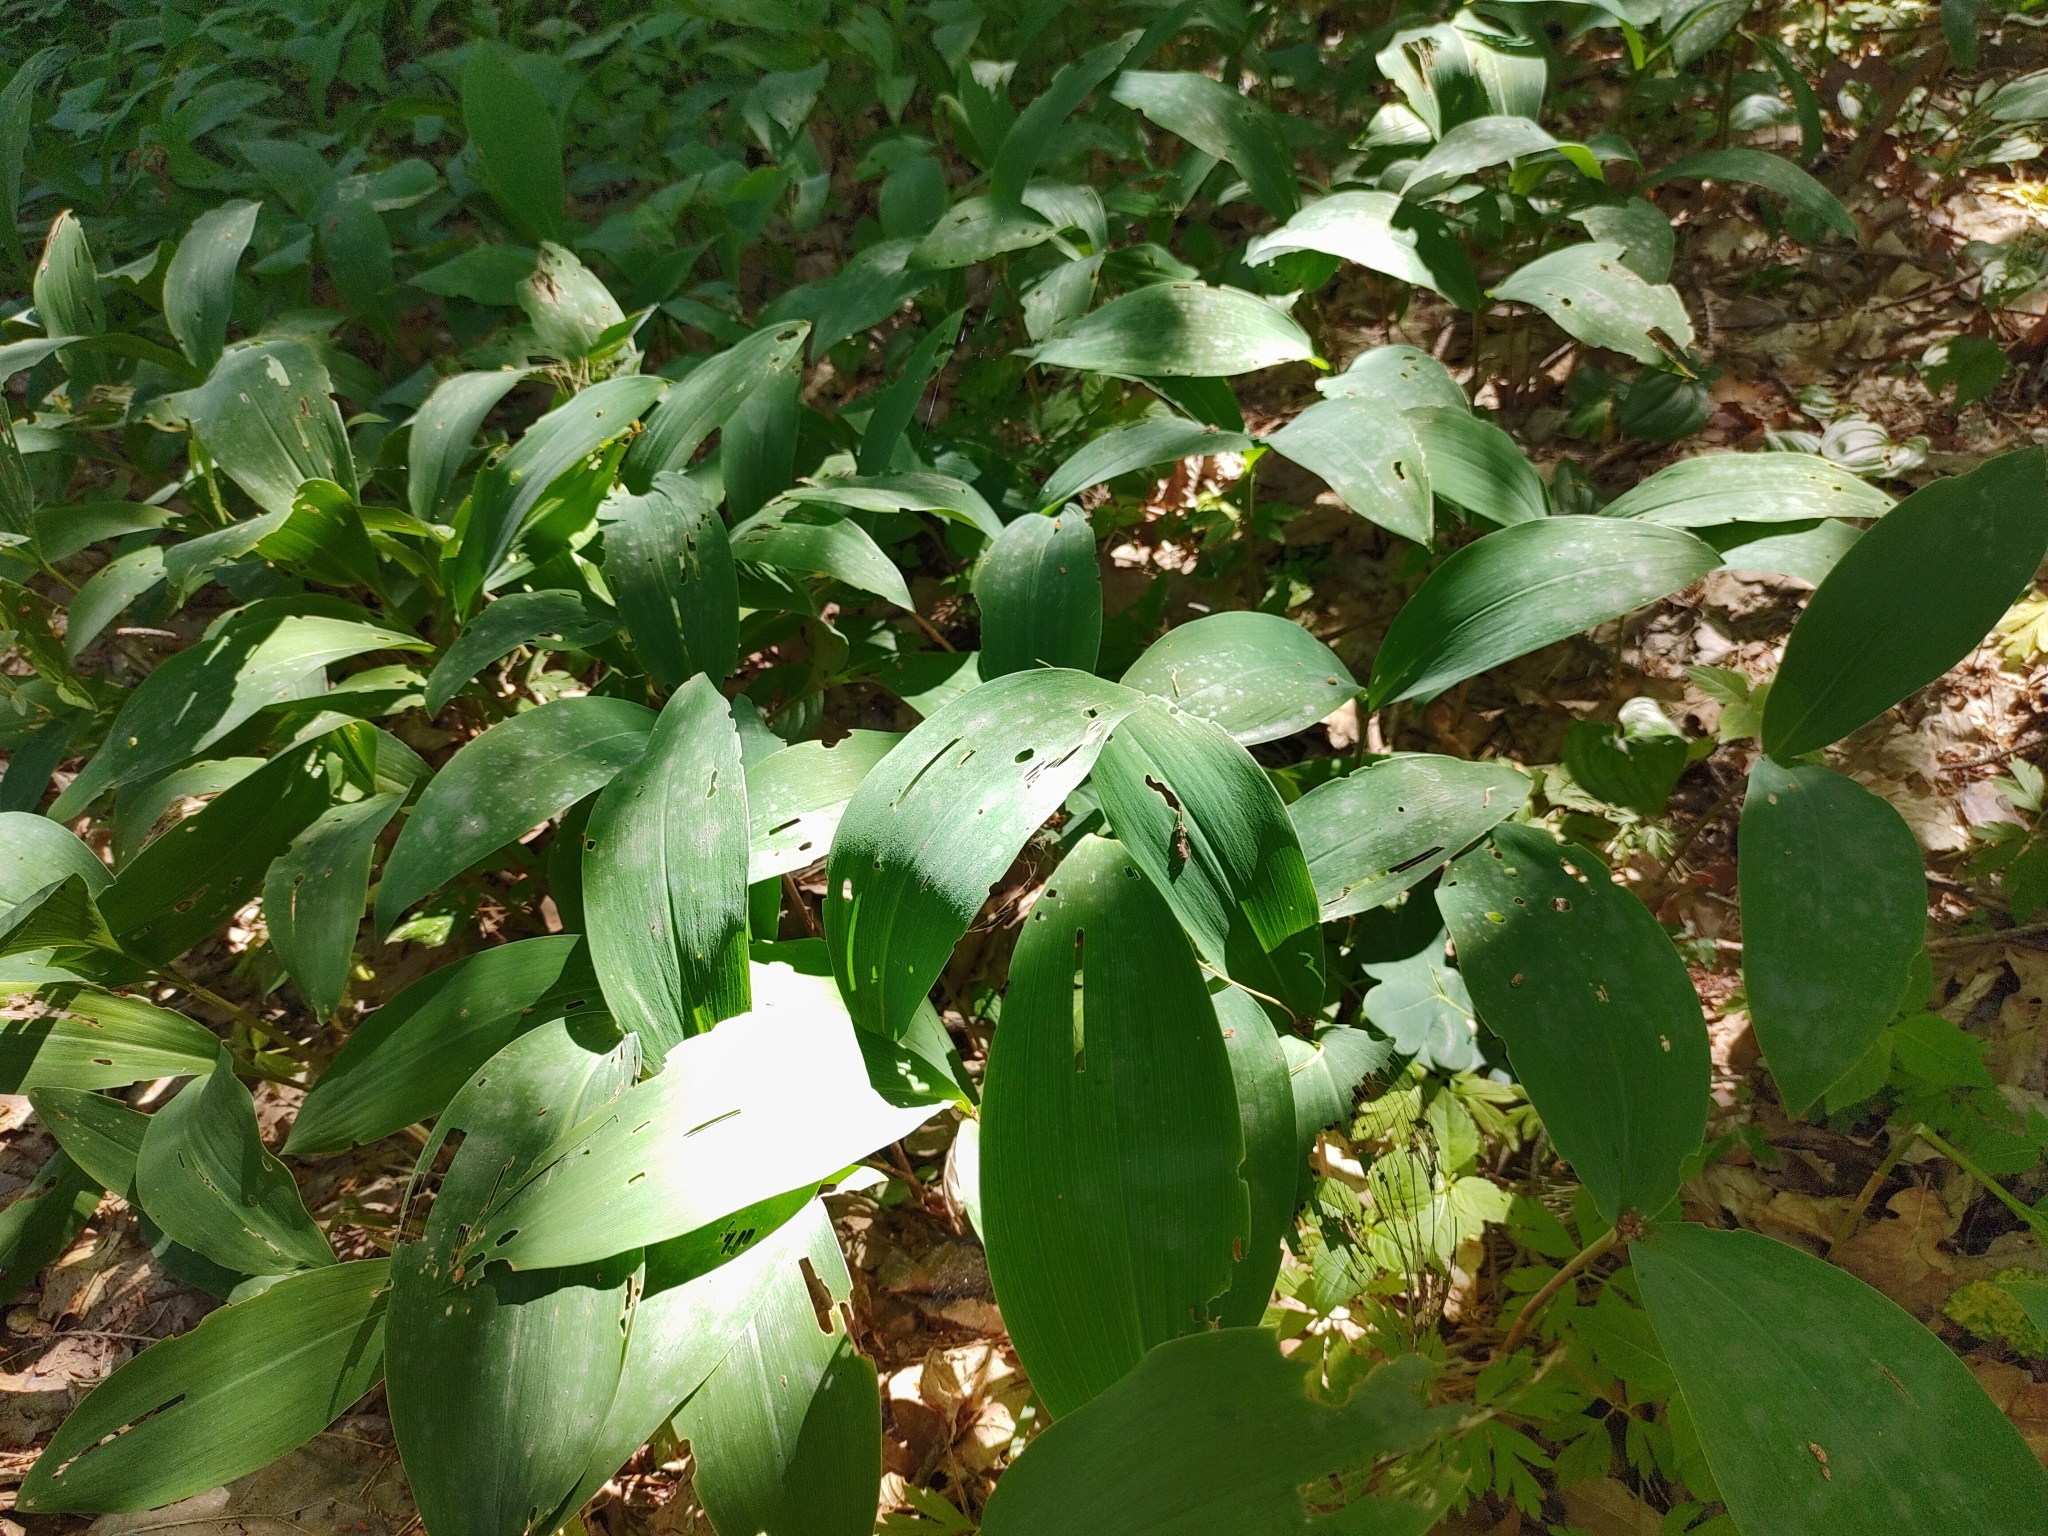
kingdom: Plantae
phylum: Tracheophyta
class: Liliopsida
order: Asparagales
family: Asparagaceae
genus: Convallaria
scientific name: Convallaria majalis
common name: Lily-of-the-valley
